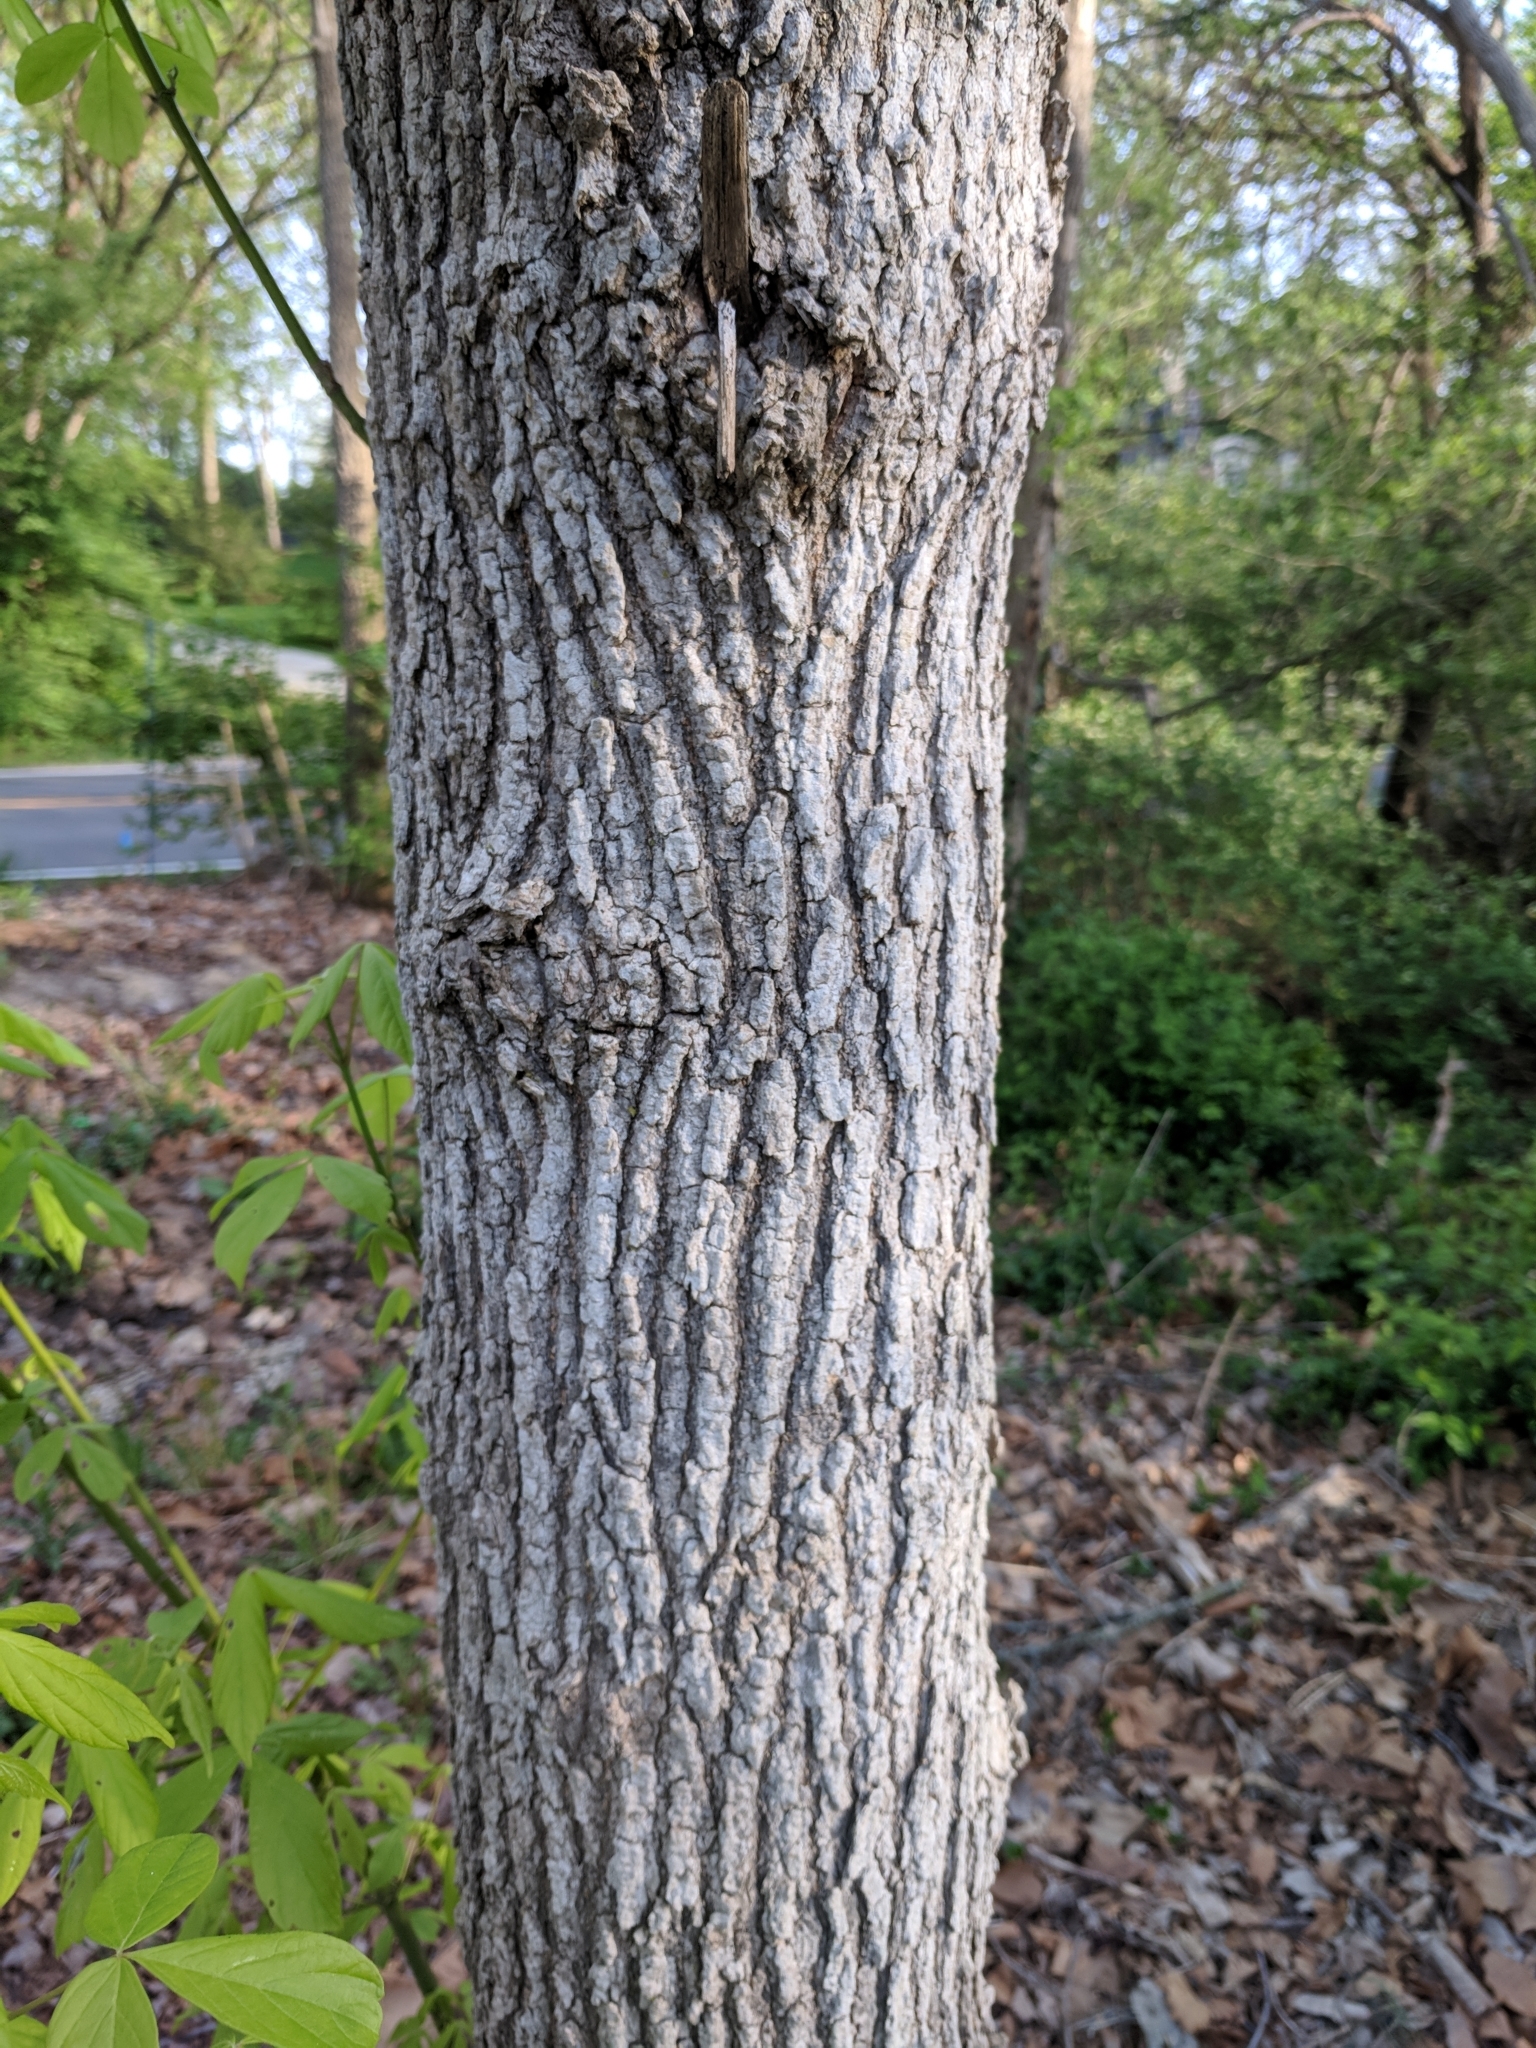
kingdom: Plantae
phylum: Tracheophyta
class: Magnoliopsida
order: Sapindales
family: Sapindaceae
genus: Acer
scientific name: Acer negundo
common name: Ashleaf maple
